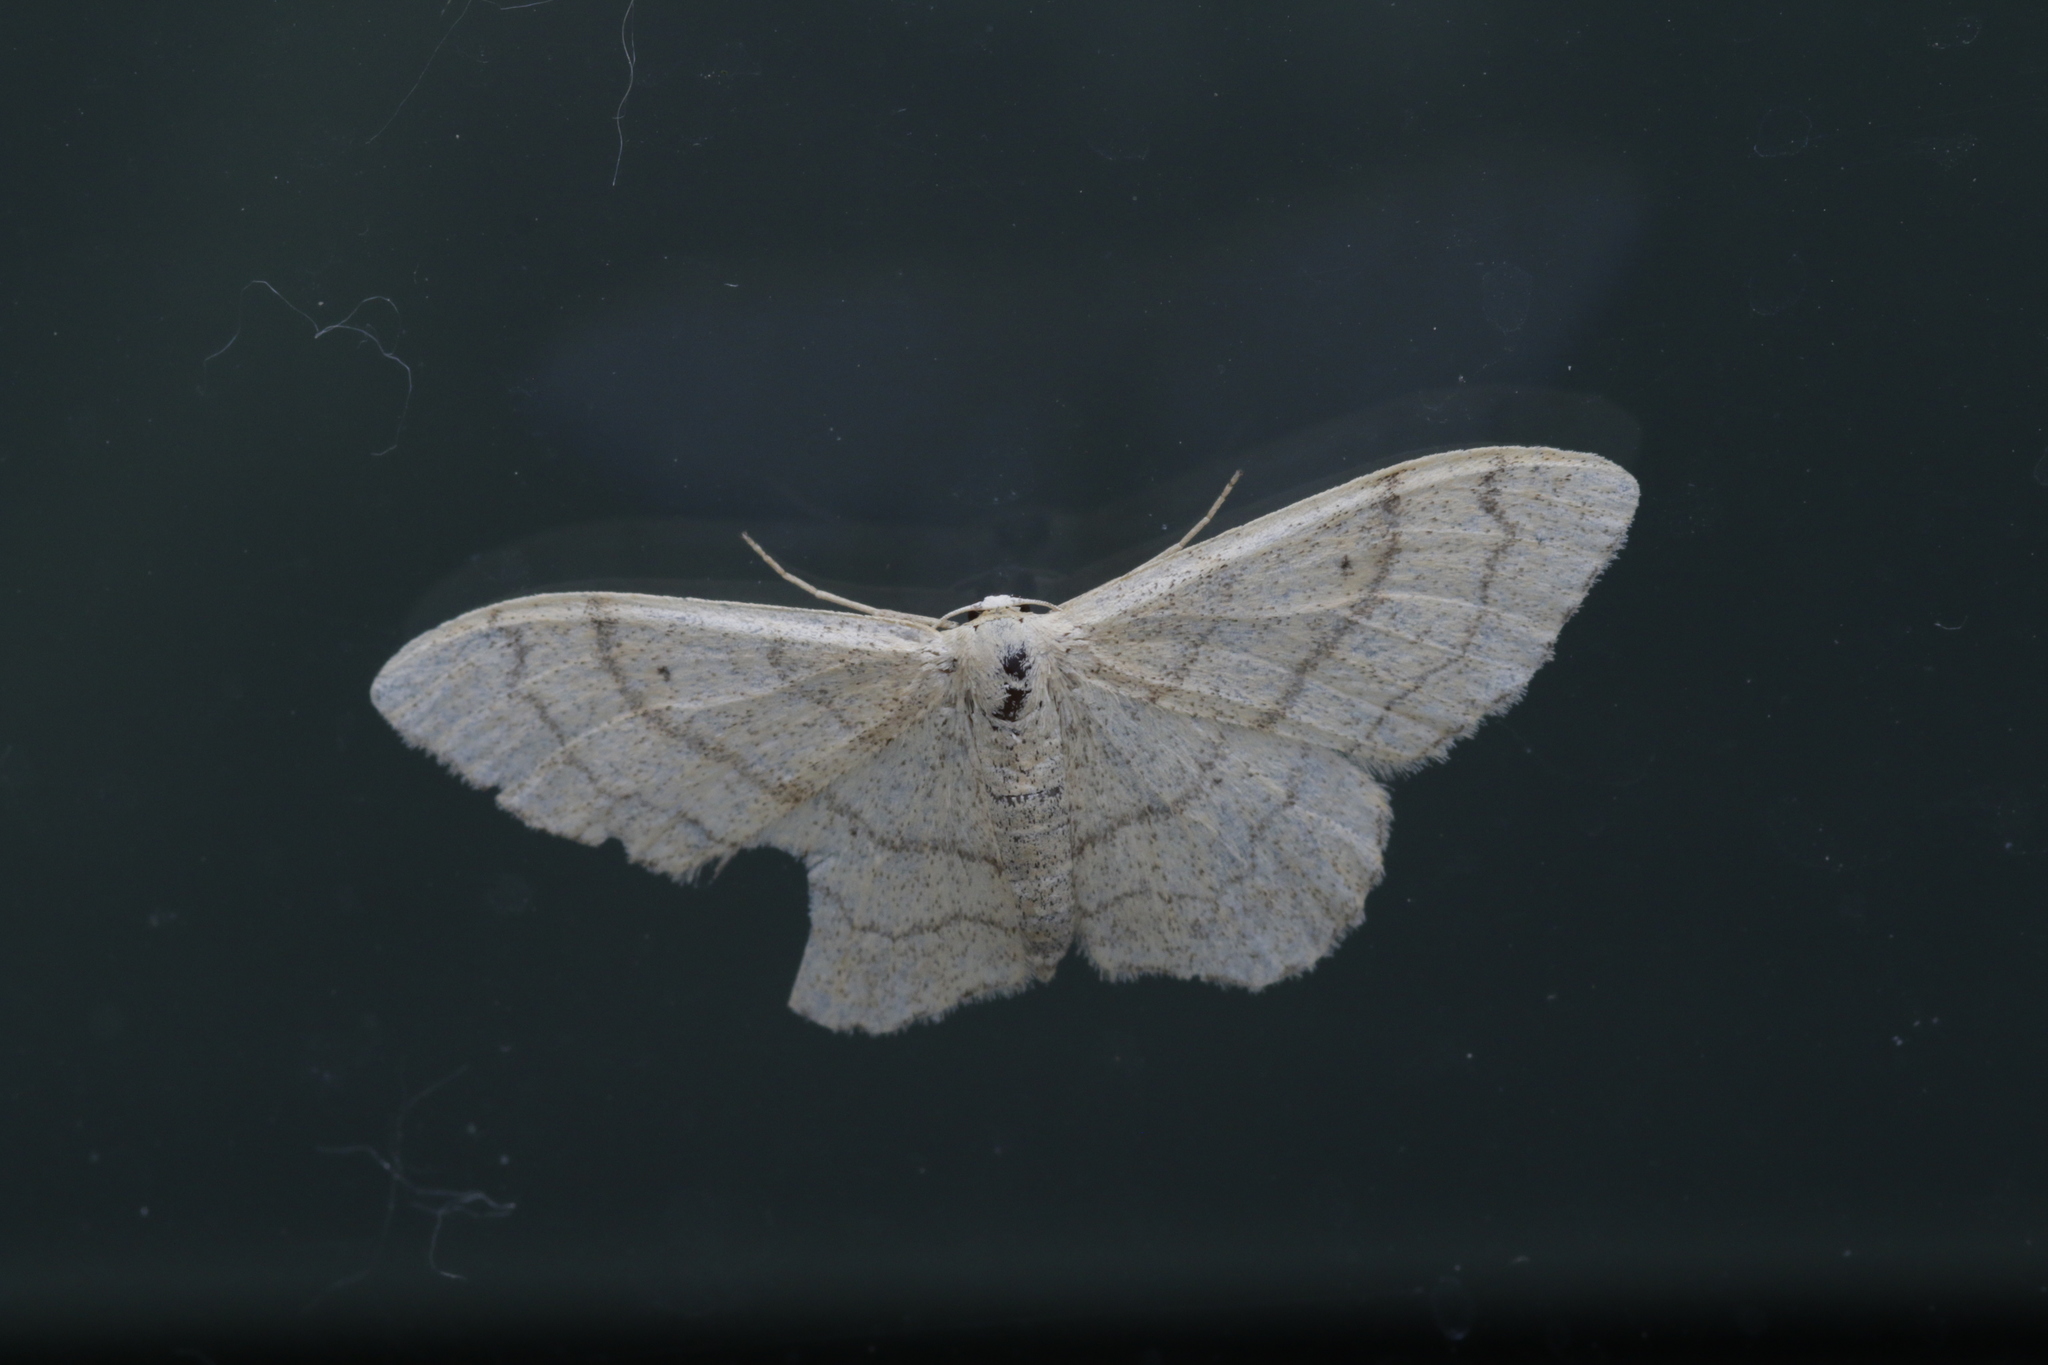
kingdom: Animalia
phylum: Arthropoda
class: Insecta
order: Lepidoptera
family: Geometridae
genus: Idaea
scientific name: Idaea aversata
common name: Riband wave
